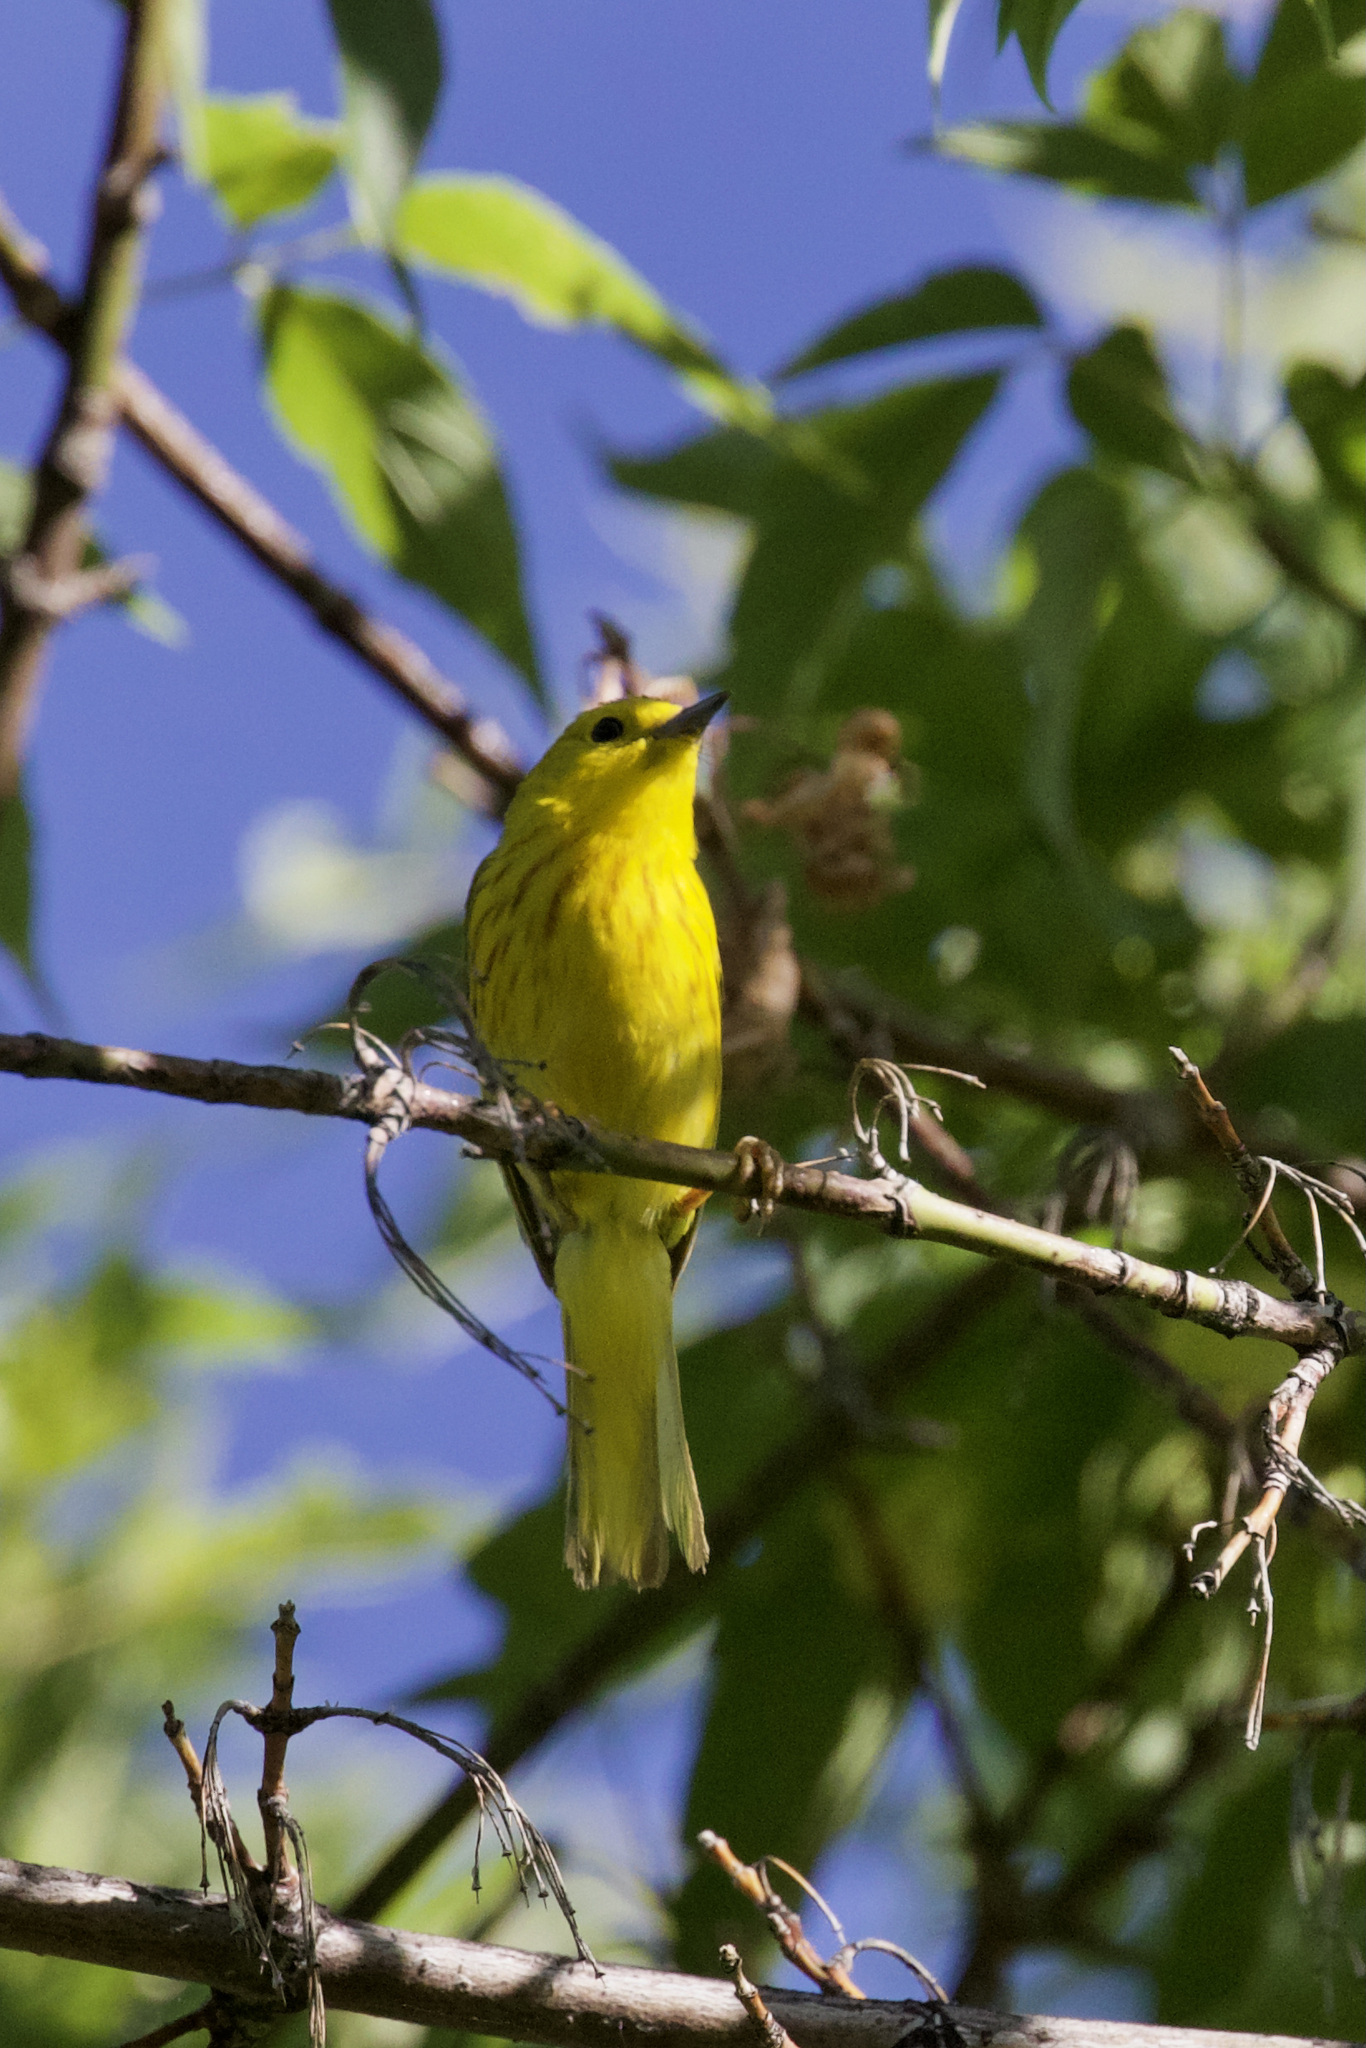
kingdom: Animalia
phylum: Chordata
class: Aves
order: Passeriformes
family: Parulidae
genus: Setophaga
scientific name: Setophaga petechia
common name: Yellow warbler
